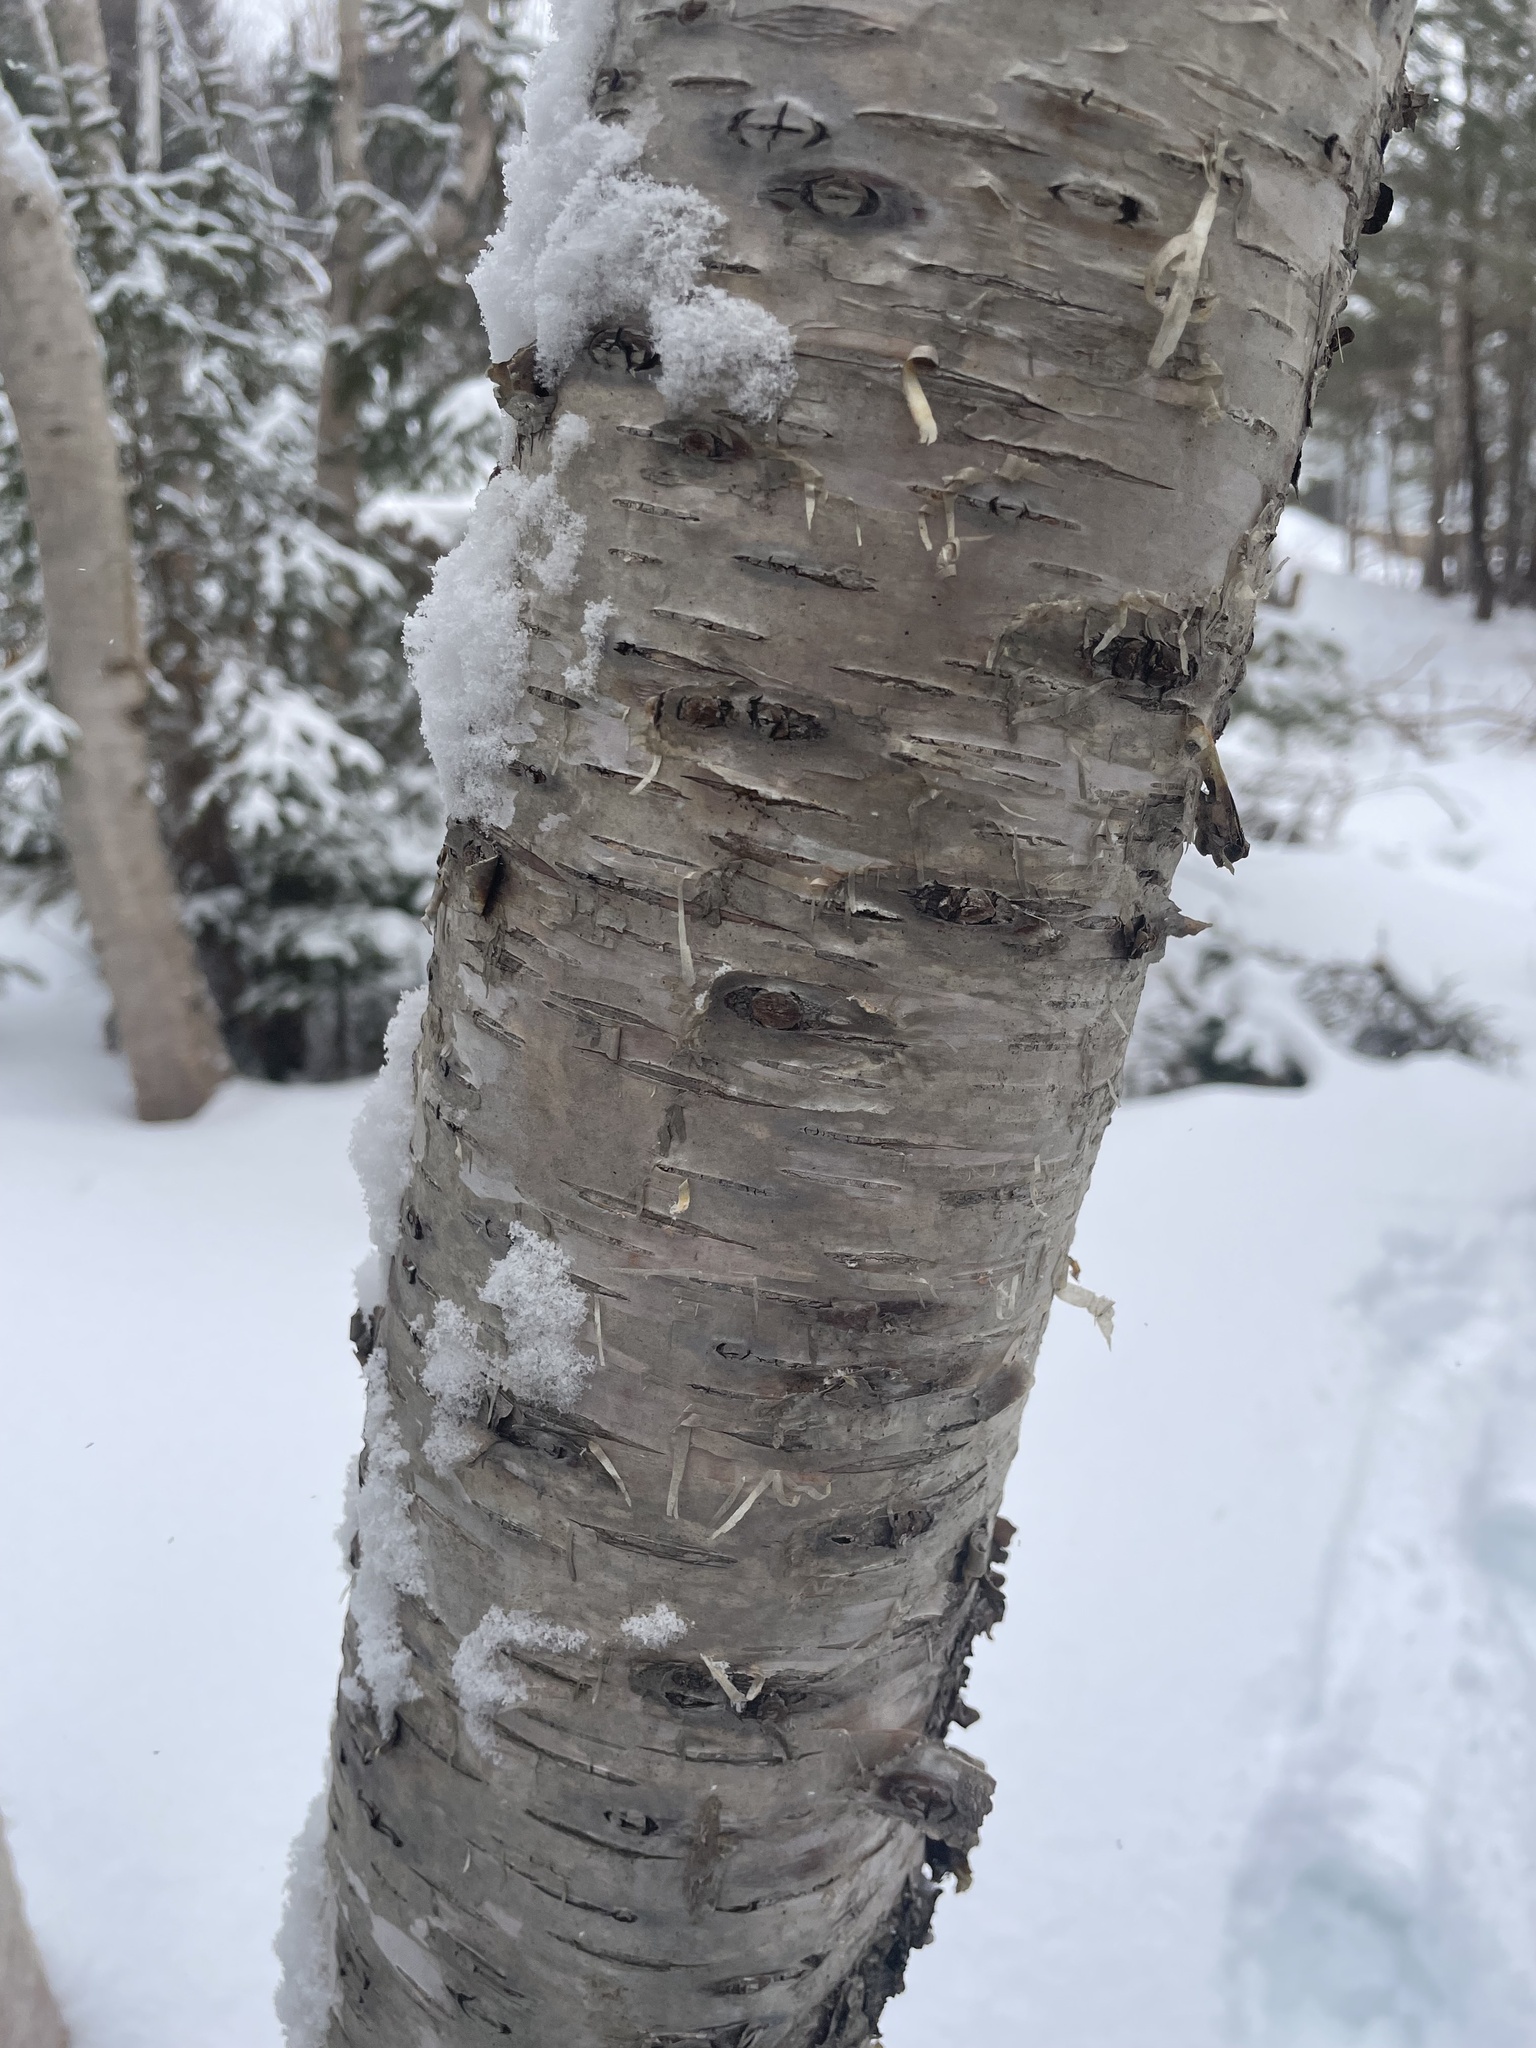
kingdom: Plantae
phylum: Tracheophyta
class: Magnoliopsida
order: Fagales
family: Betulaceae
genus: Betula
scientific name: Betula papyrifera
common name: Paper birch
